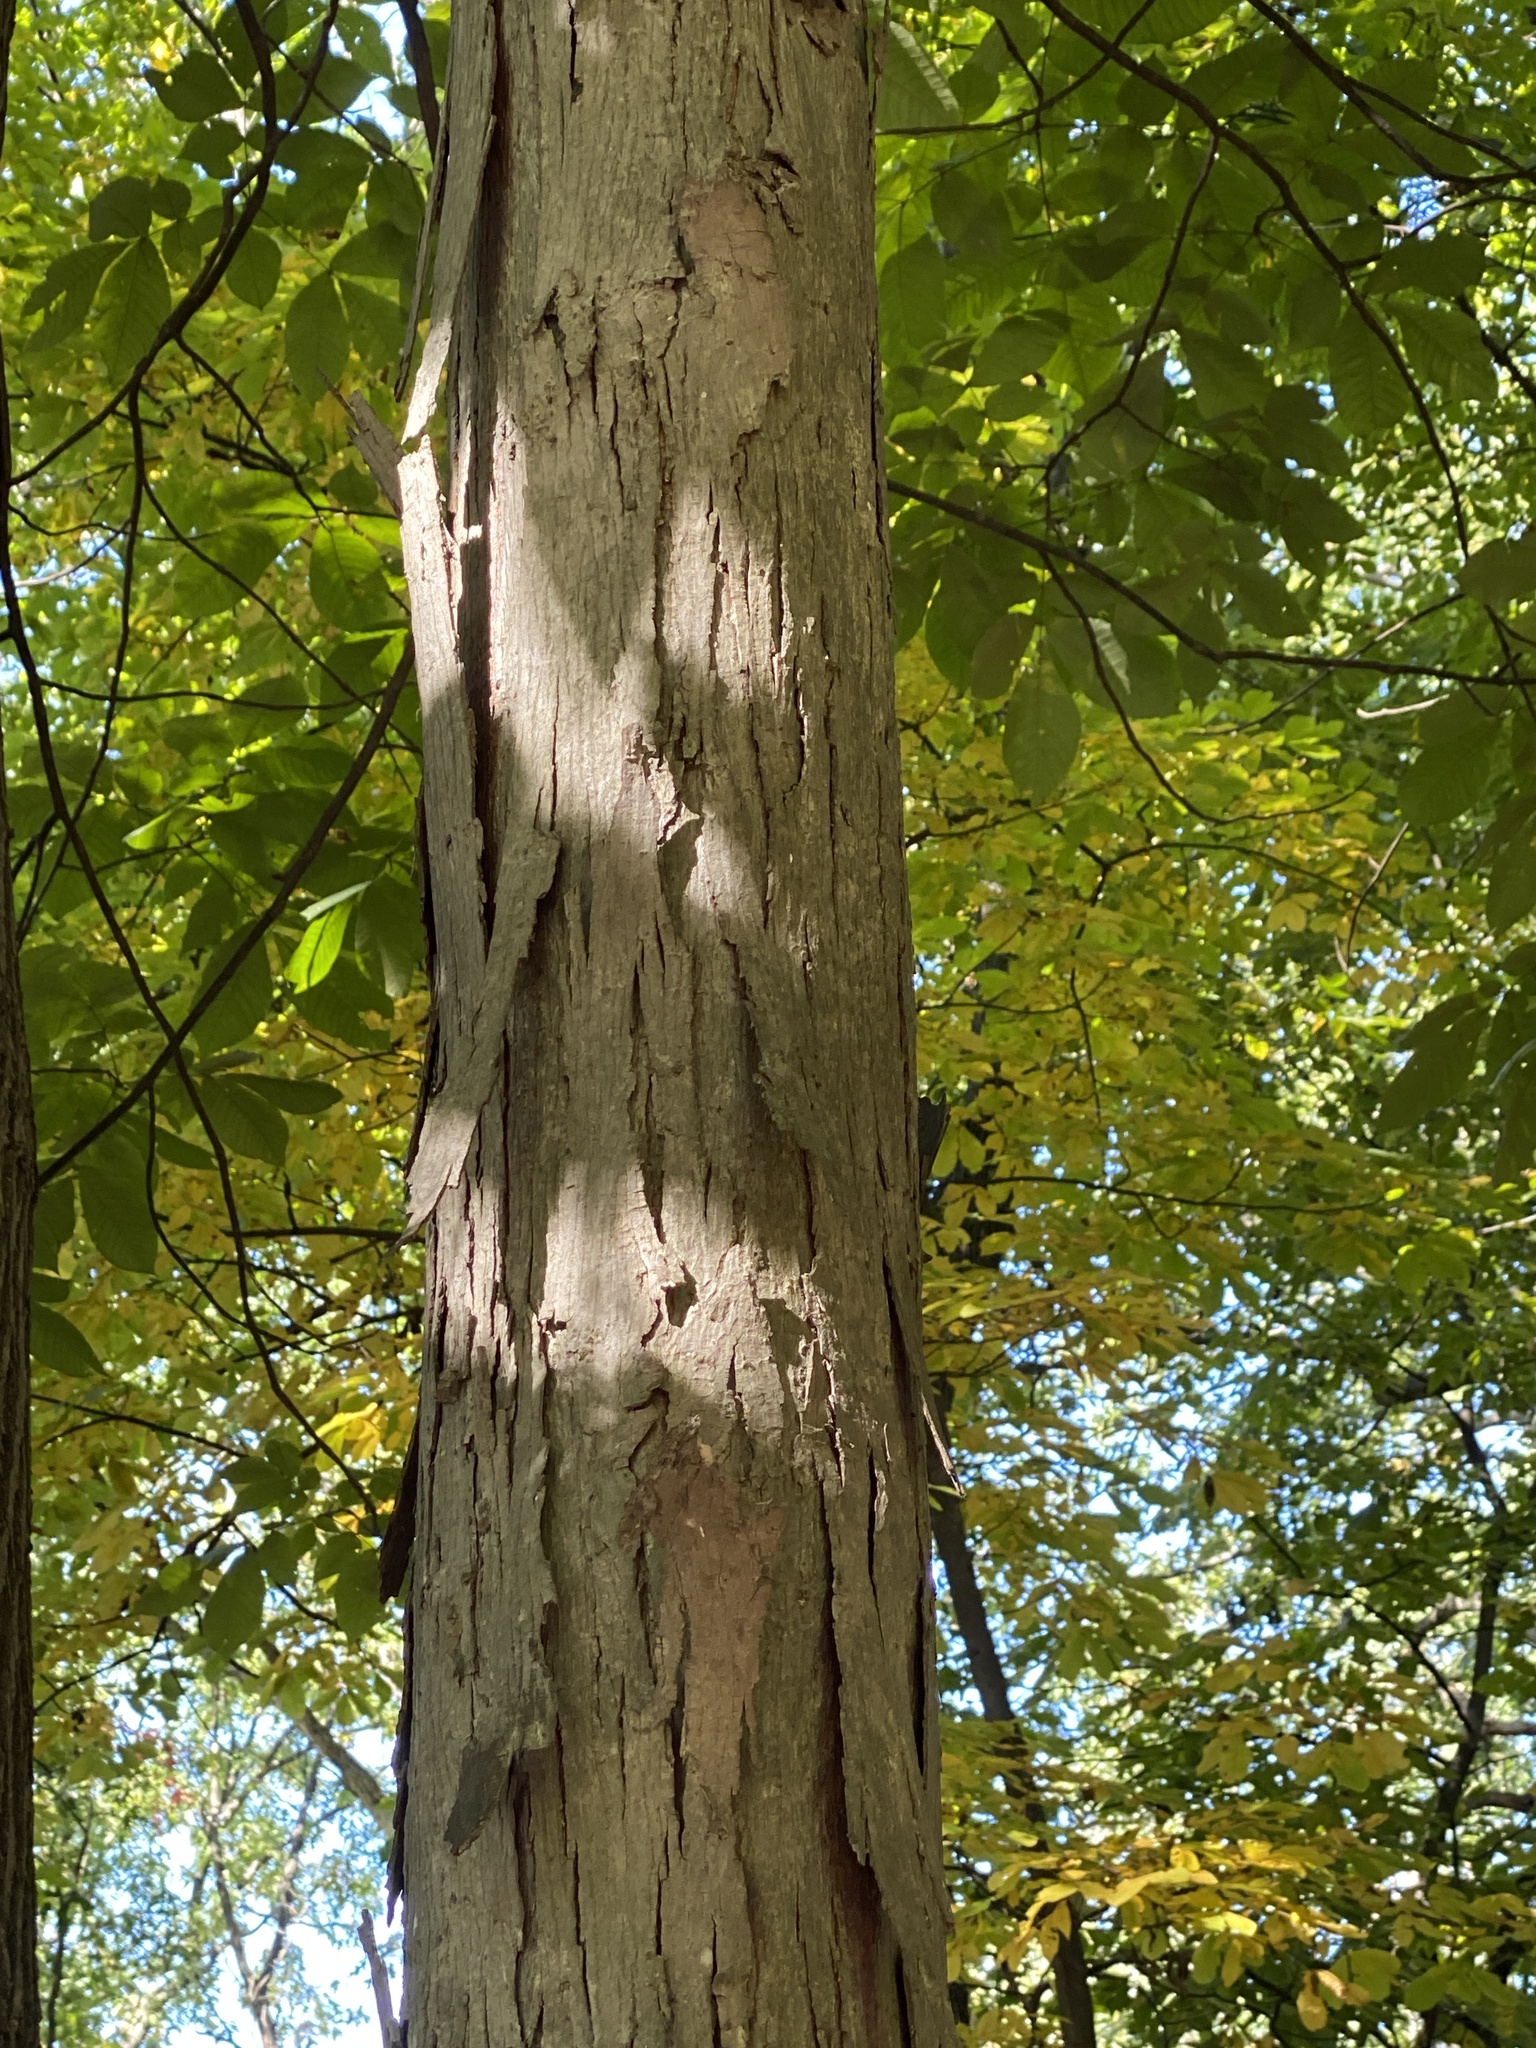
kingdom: Plantae
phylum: Tracheophyta
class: Magnoliopsida
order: Fagales
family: Juglandaceae
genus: Carya
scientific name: Carya ovata
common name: Shagbark hickory
